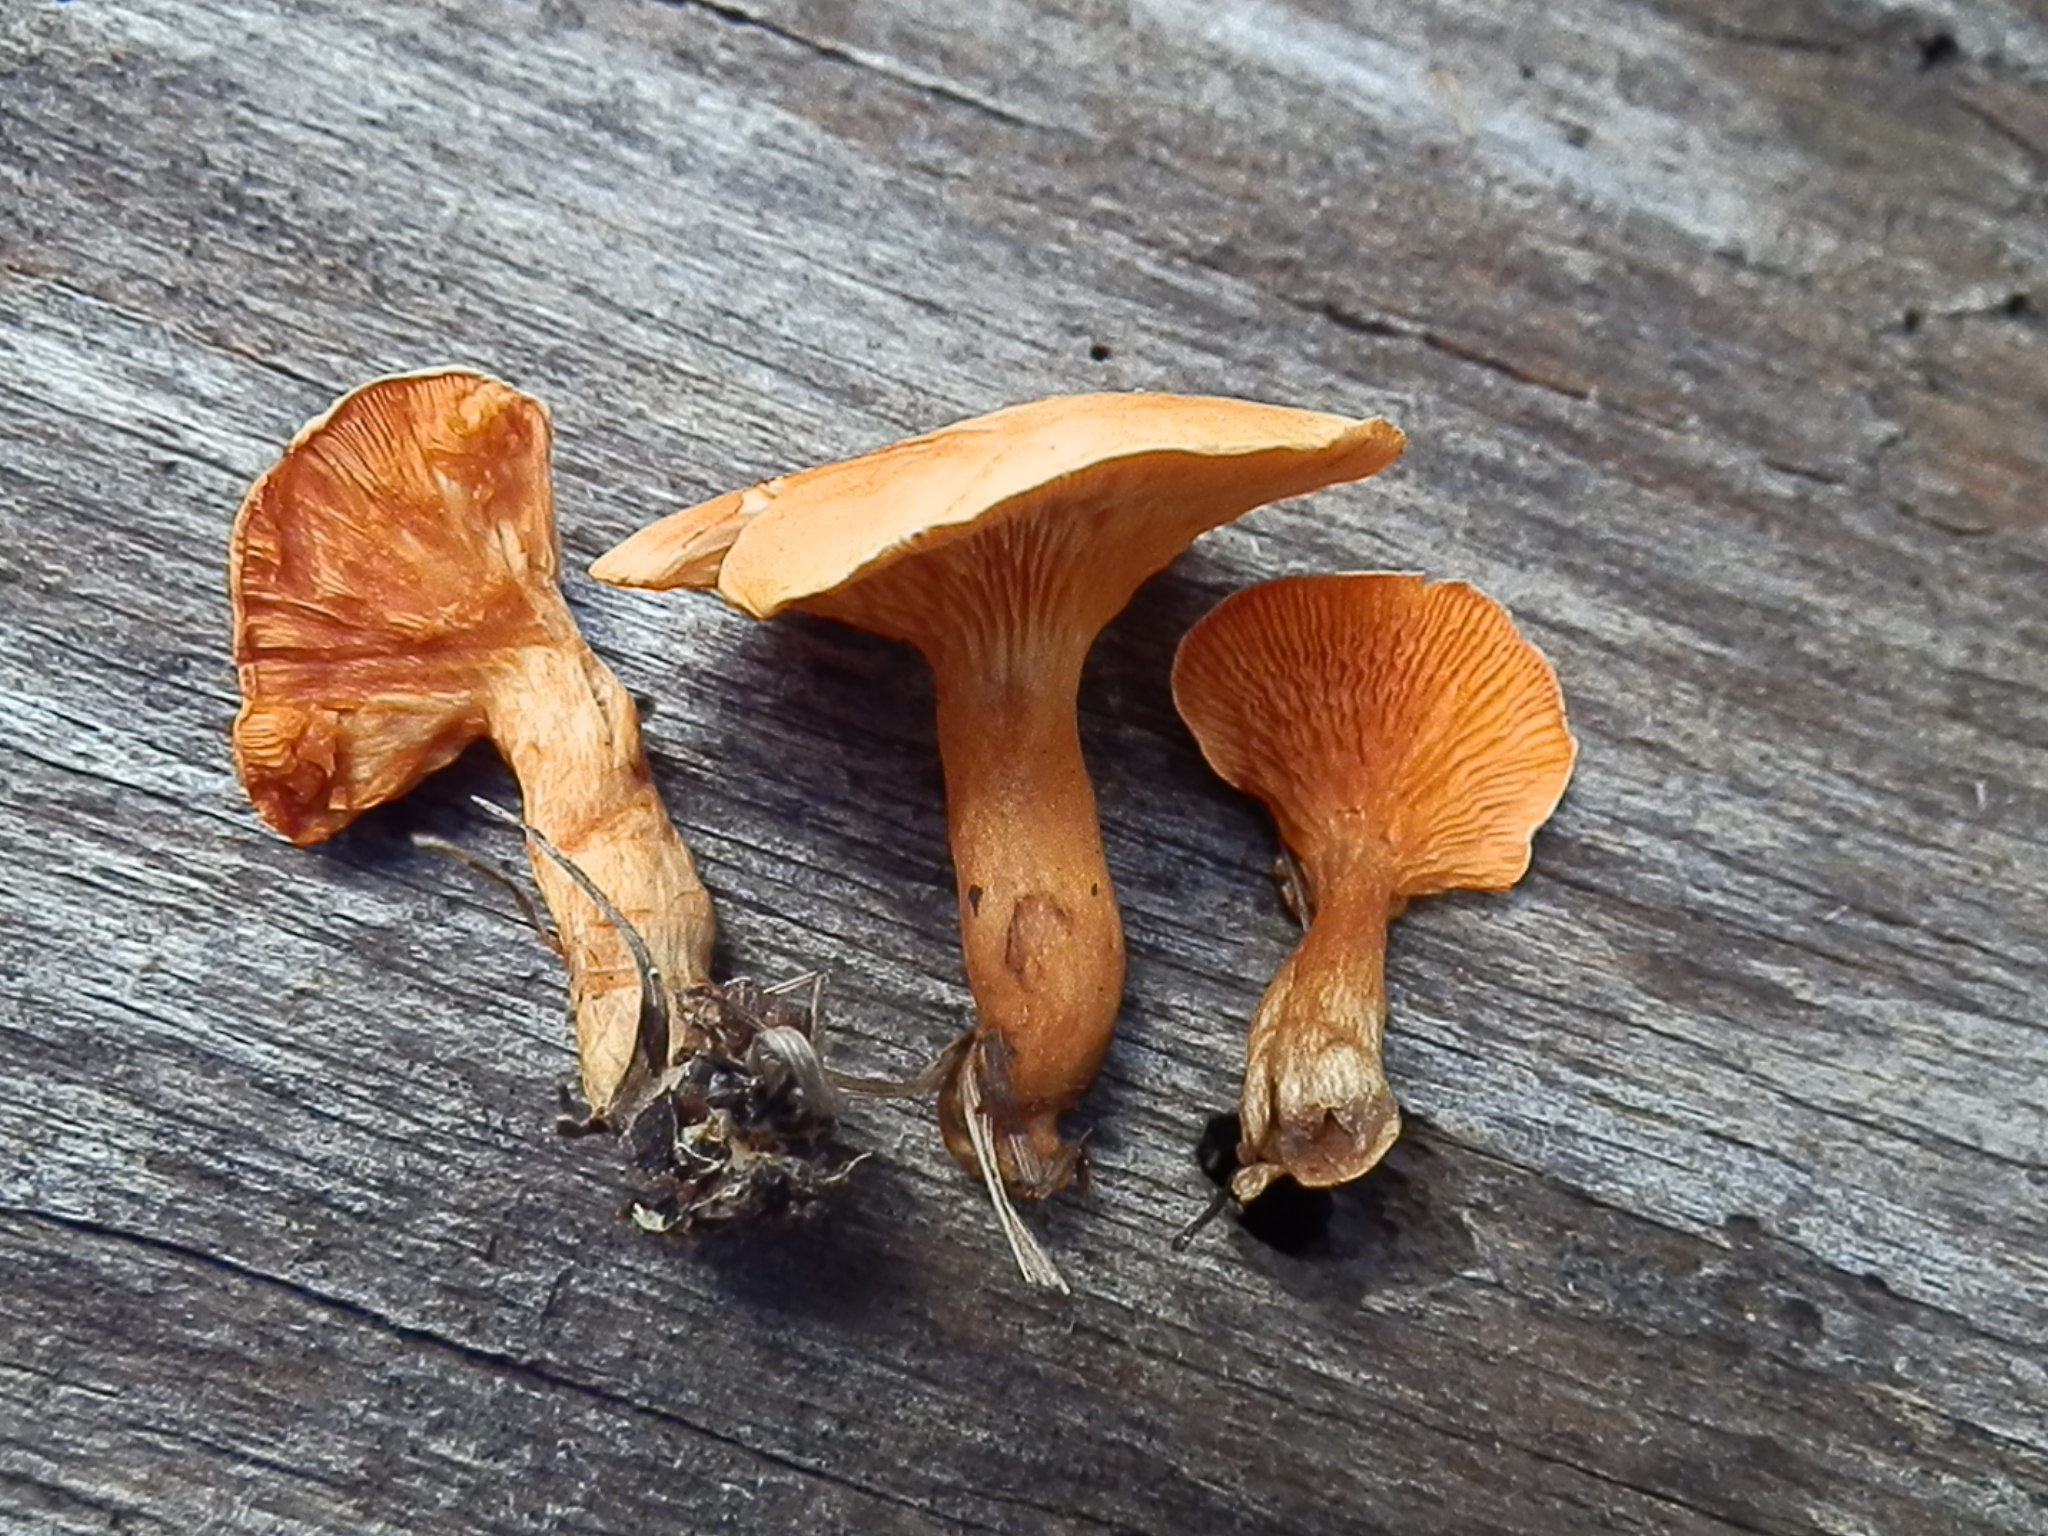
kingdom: Fungi
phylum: Basidiomycota
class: Agaricomycetes
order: Boletales
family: Hygrophoropsidaceae
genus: Hygrophoropsis
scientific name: Hygrophoropsis aurantiaca
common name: False chanterelle
